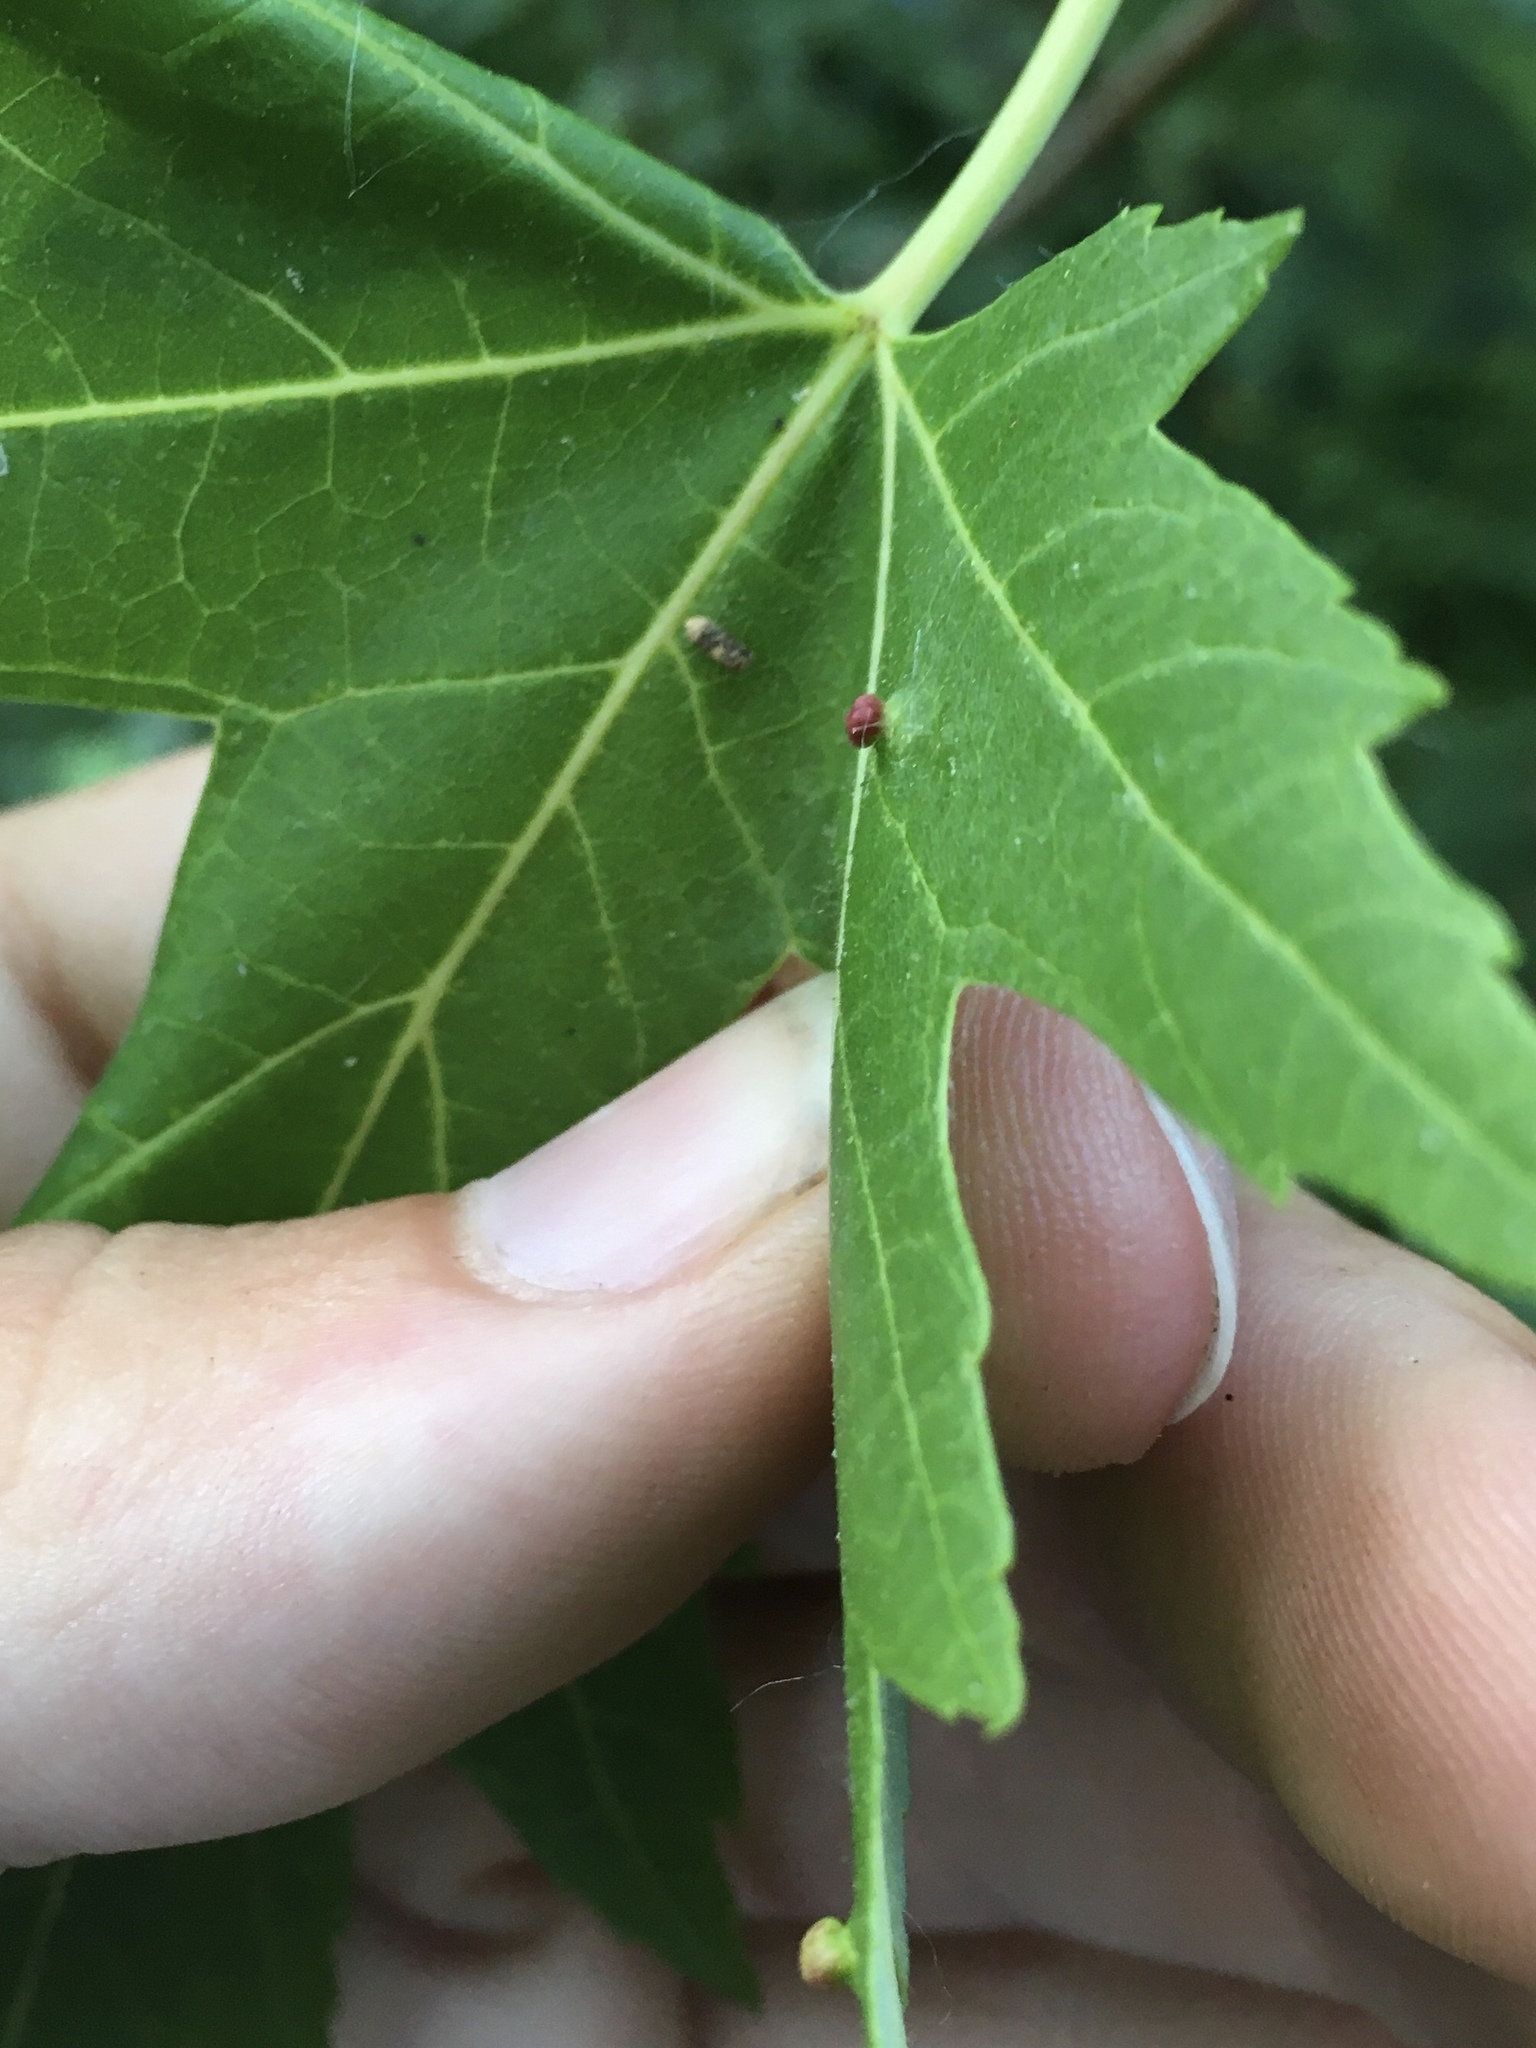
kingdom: Animalia
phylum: Arthropoda
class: Arachnida
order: Trombidiformes
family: Eriophyidae
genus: Vasates
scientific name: Vasates quadripedes
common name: Maple bladder gall mite
